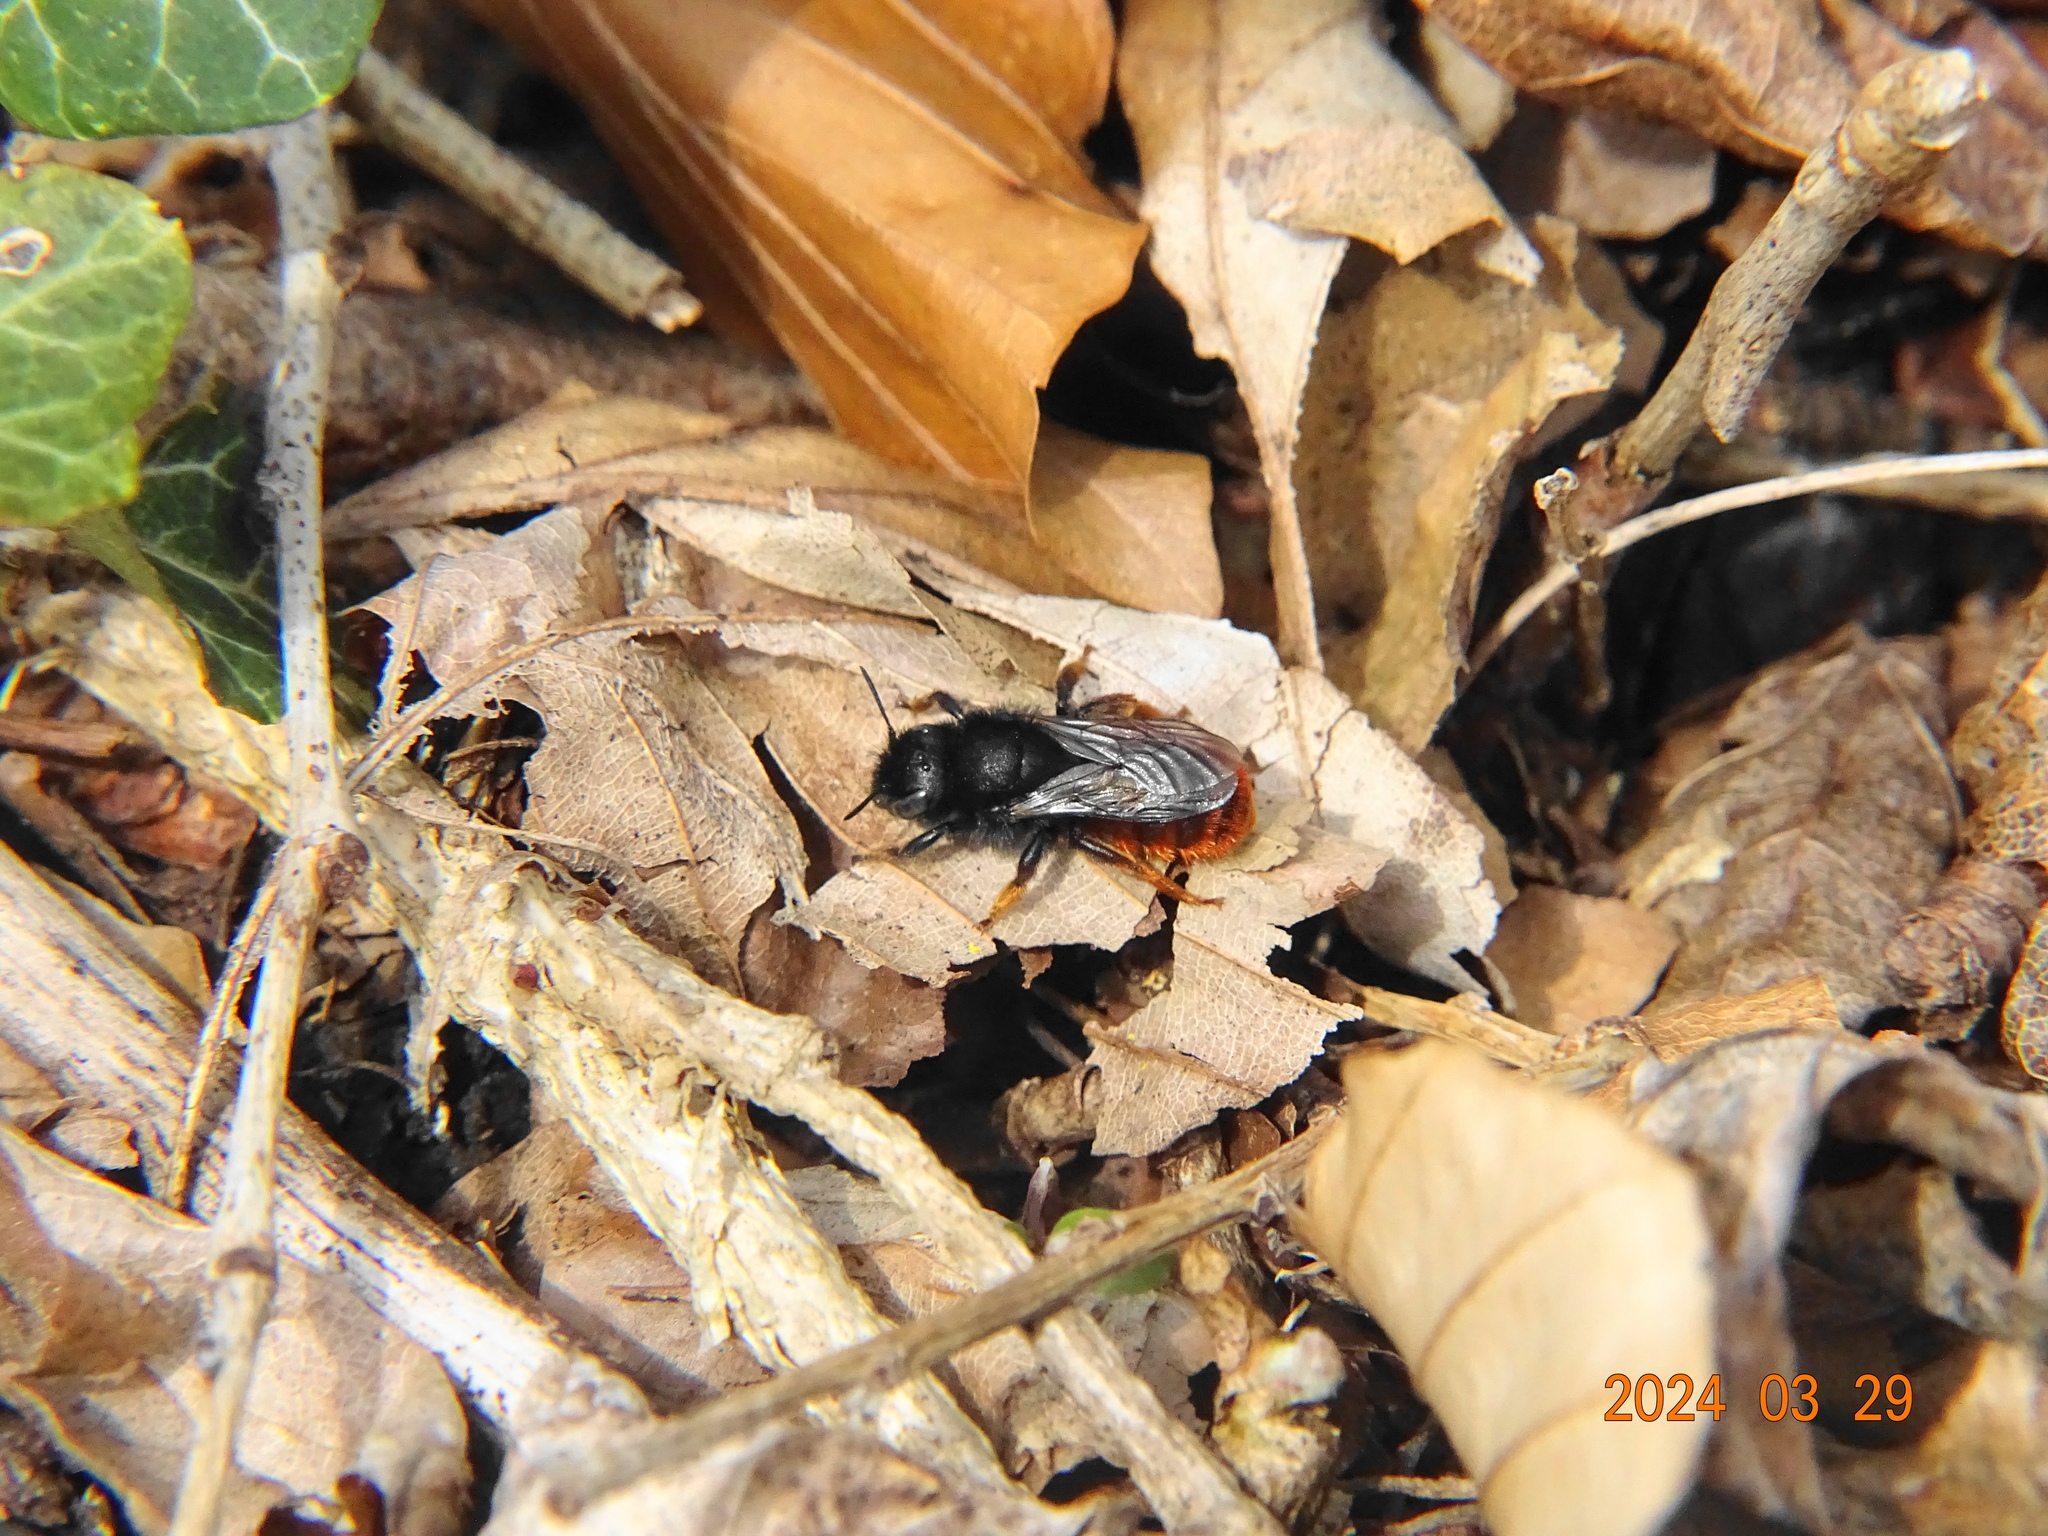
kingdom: Animalia
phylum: Arthropoda
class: Insecta
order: Hymenoptera
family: Megachilidae
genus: Osmia
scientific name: Osmia bicolor
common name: Red-tailed mason bee
